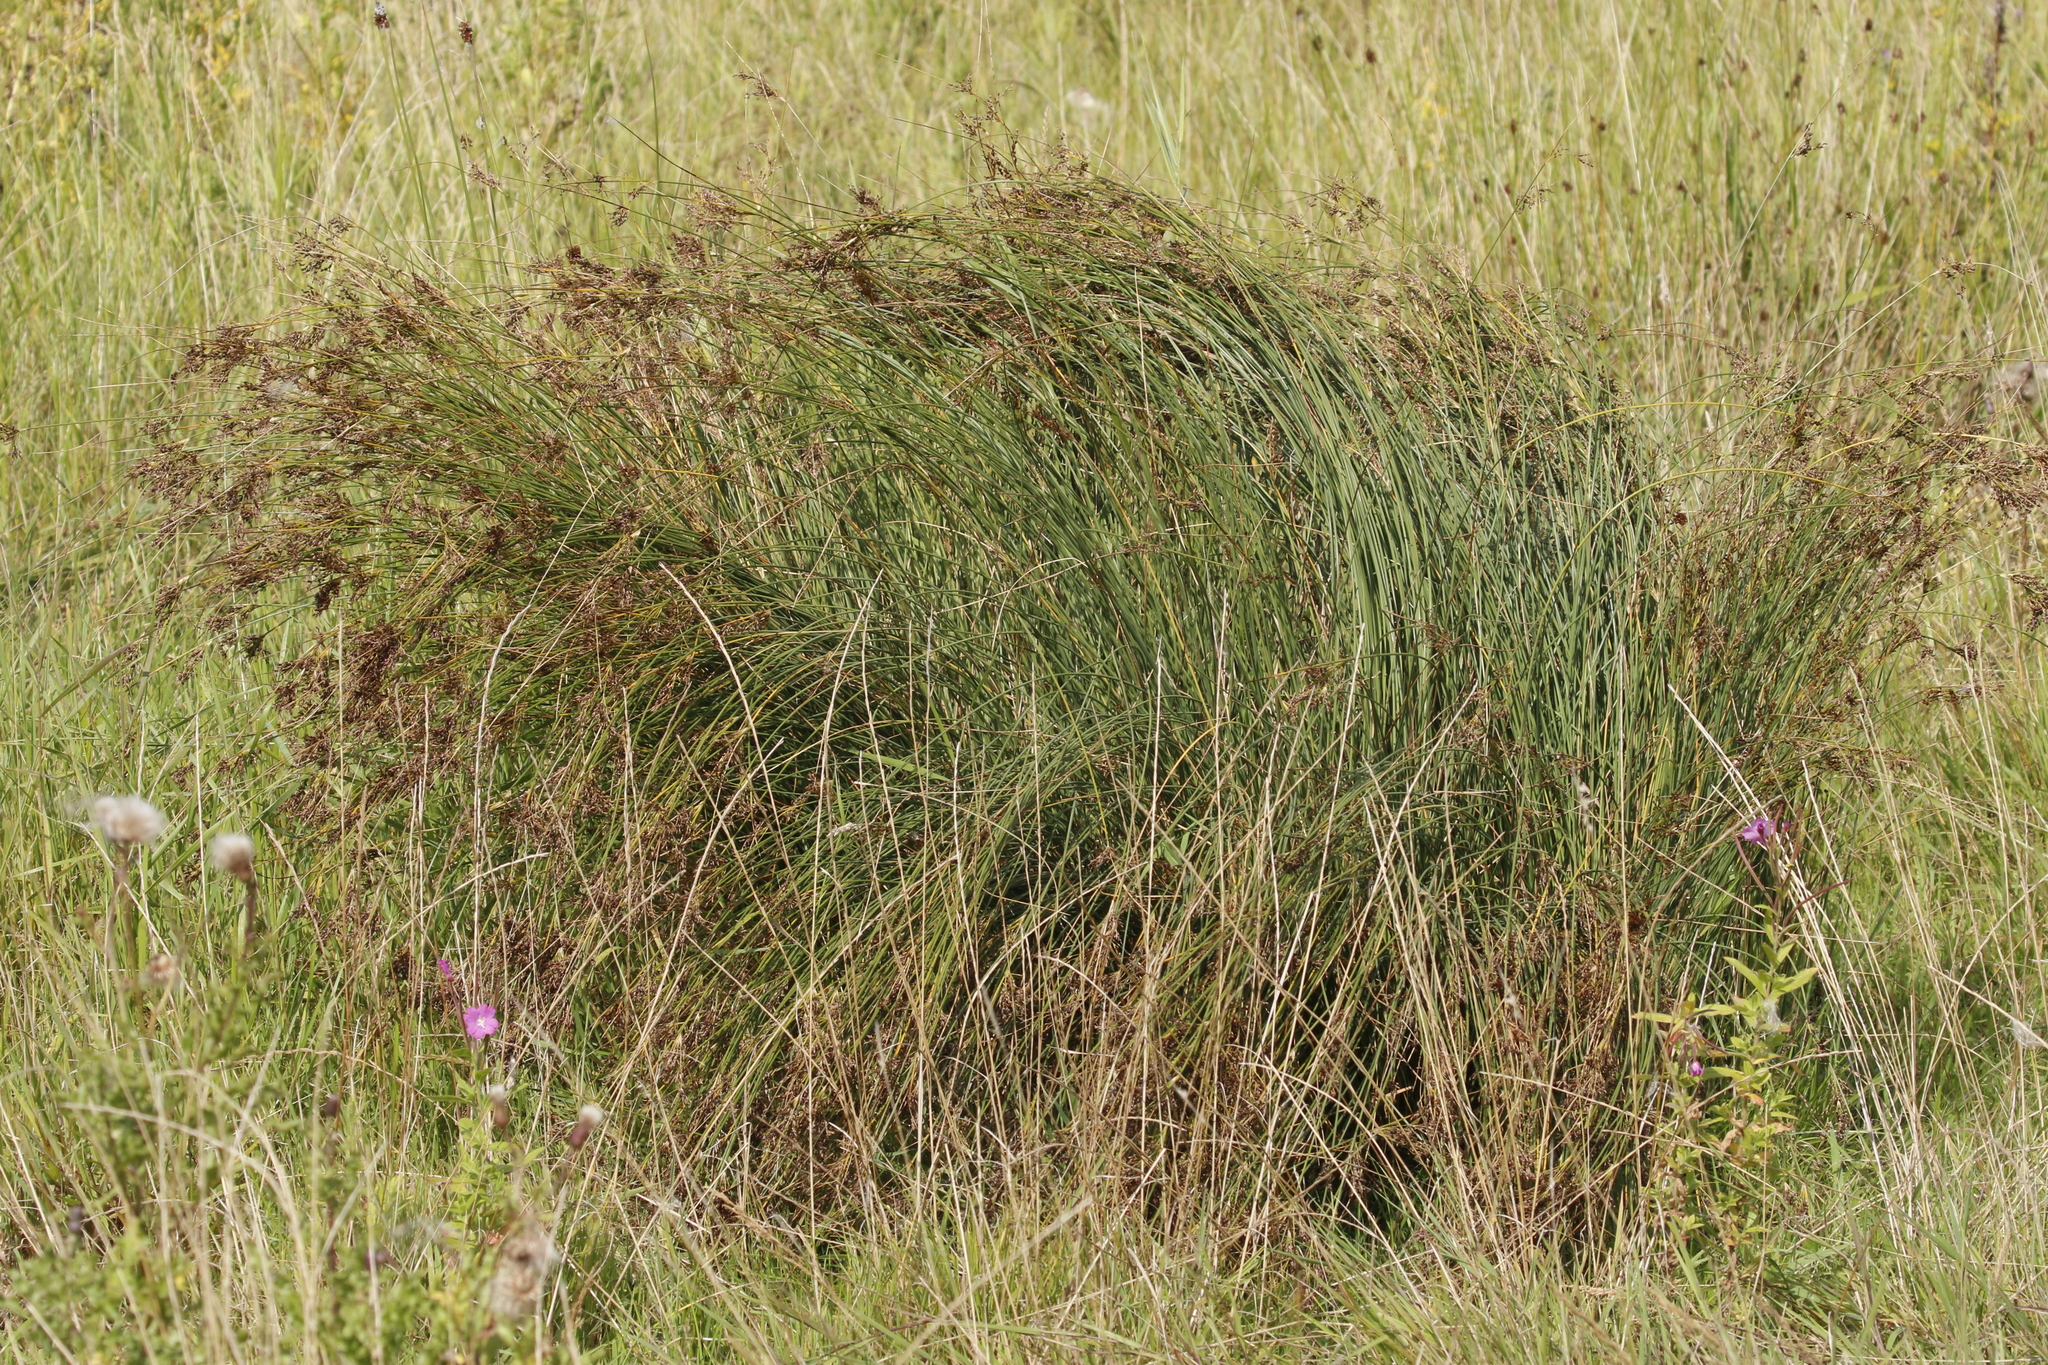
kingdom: Plantae
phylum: Tracheophyta
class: Liliopsida
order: Poales
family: Juncaceae
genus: Juncus
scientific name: Juncus inflexus
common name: Hard rush
